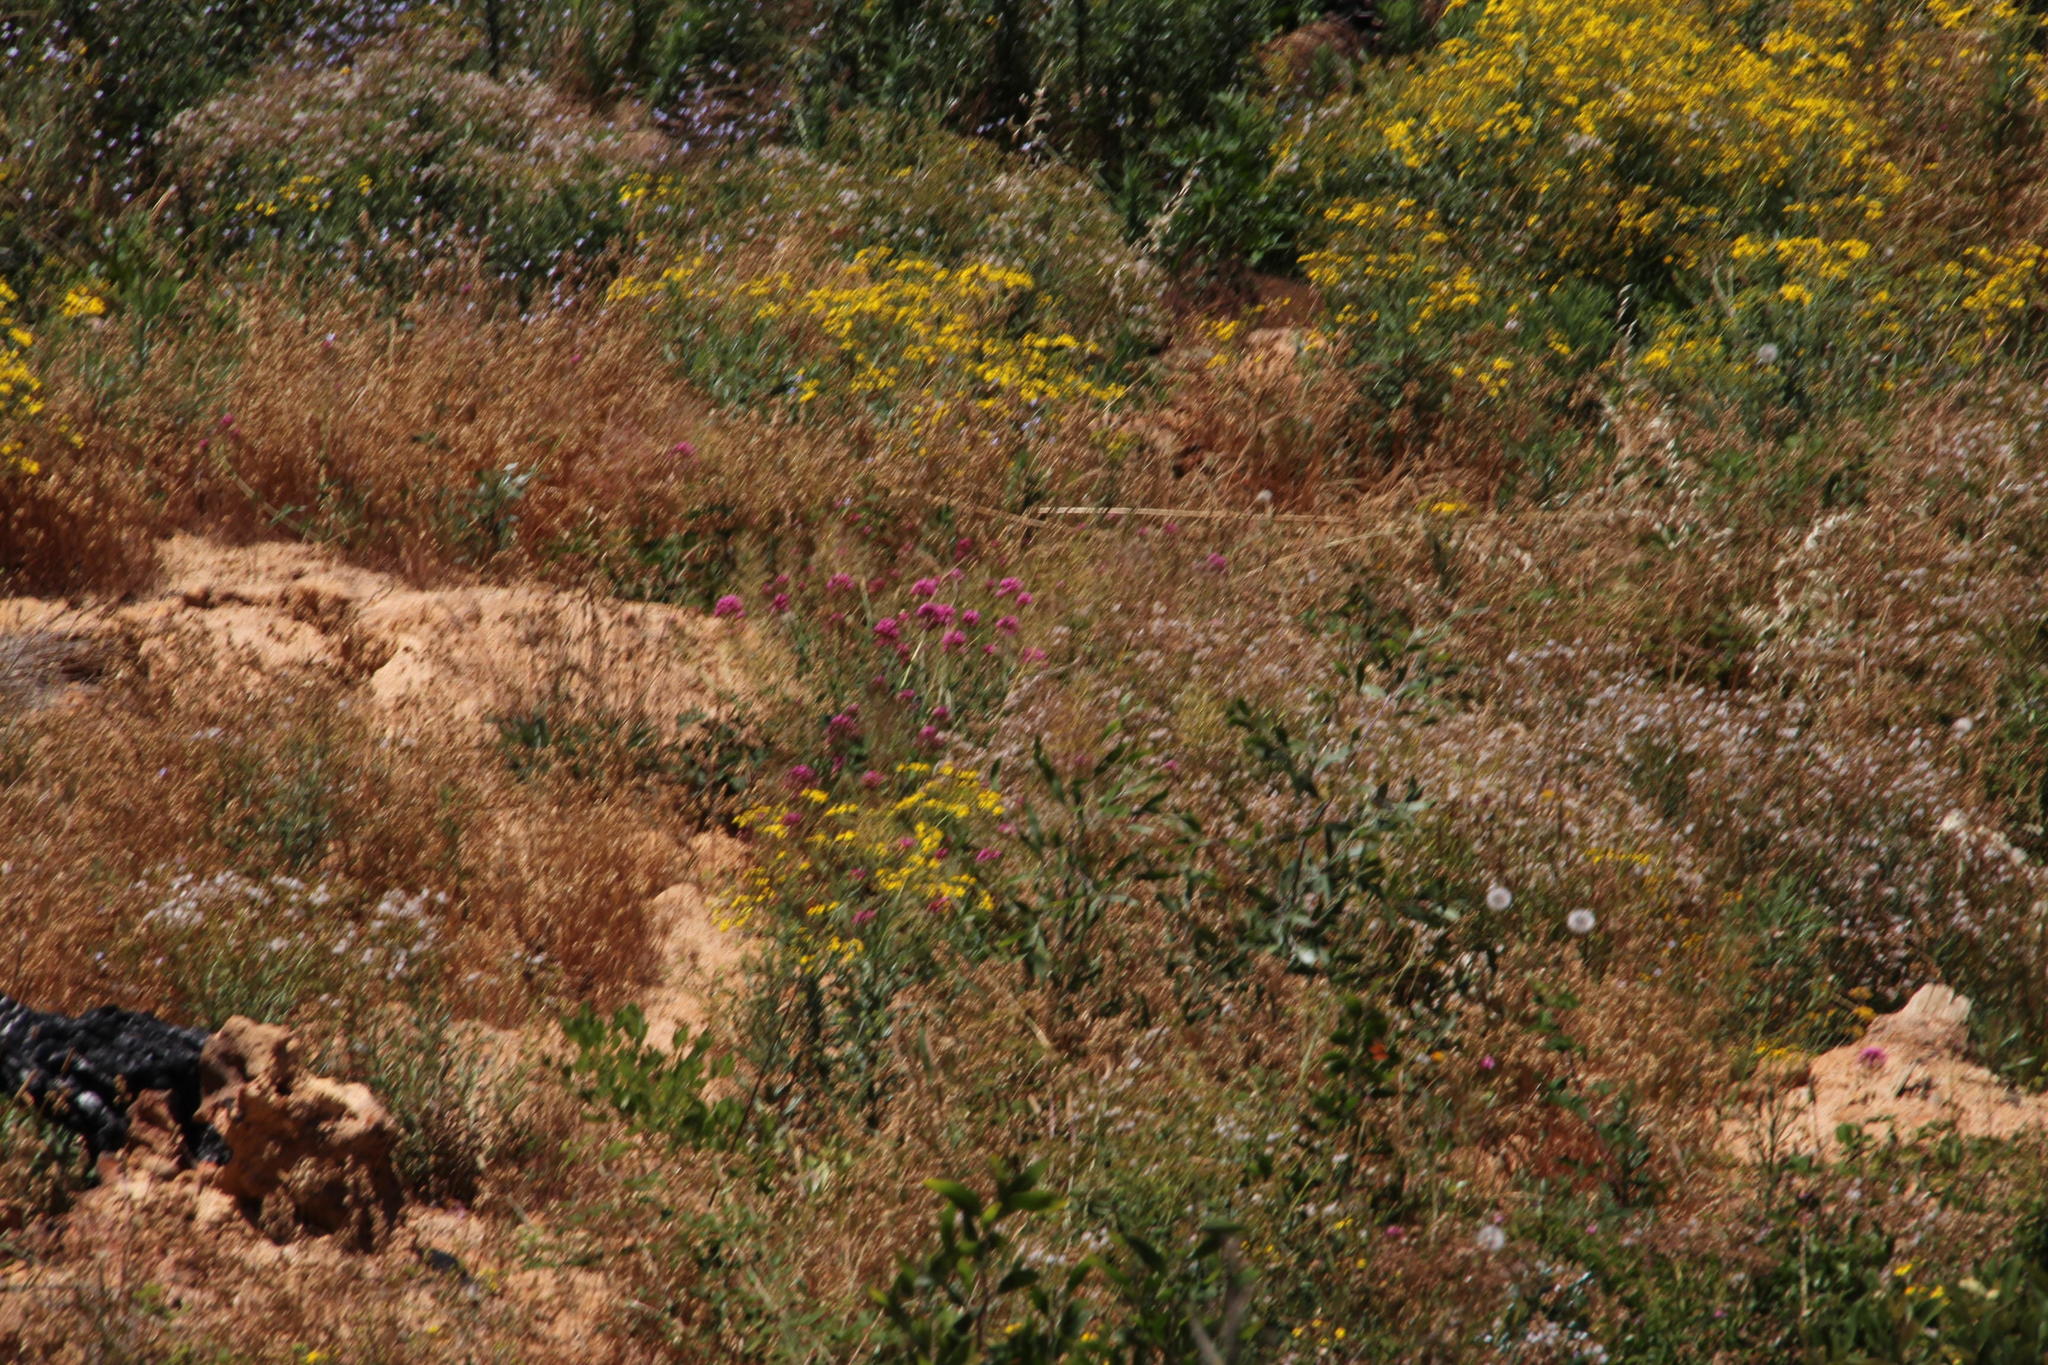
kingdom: Plantae
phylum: Tracheophyta
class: Magnoliopsida
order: Dipsacales
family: Caprifoliaceae
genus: Centranthus
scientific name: Centranthus ruber
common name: Red valerian
